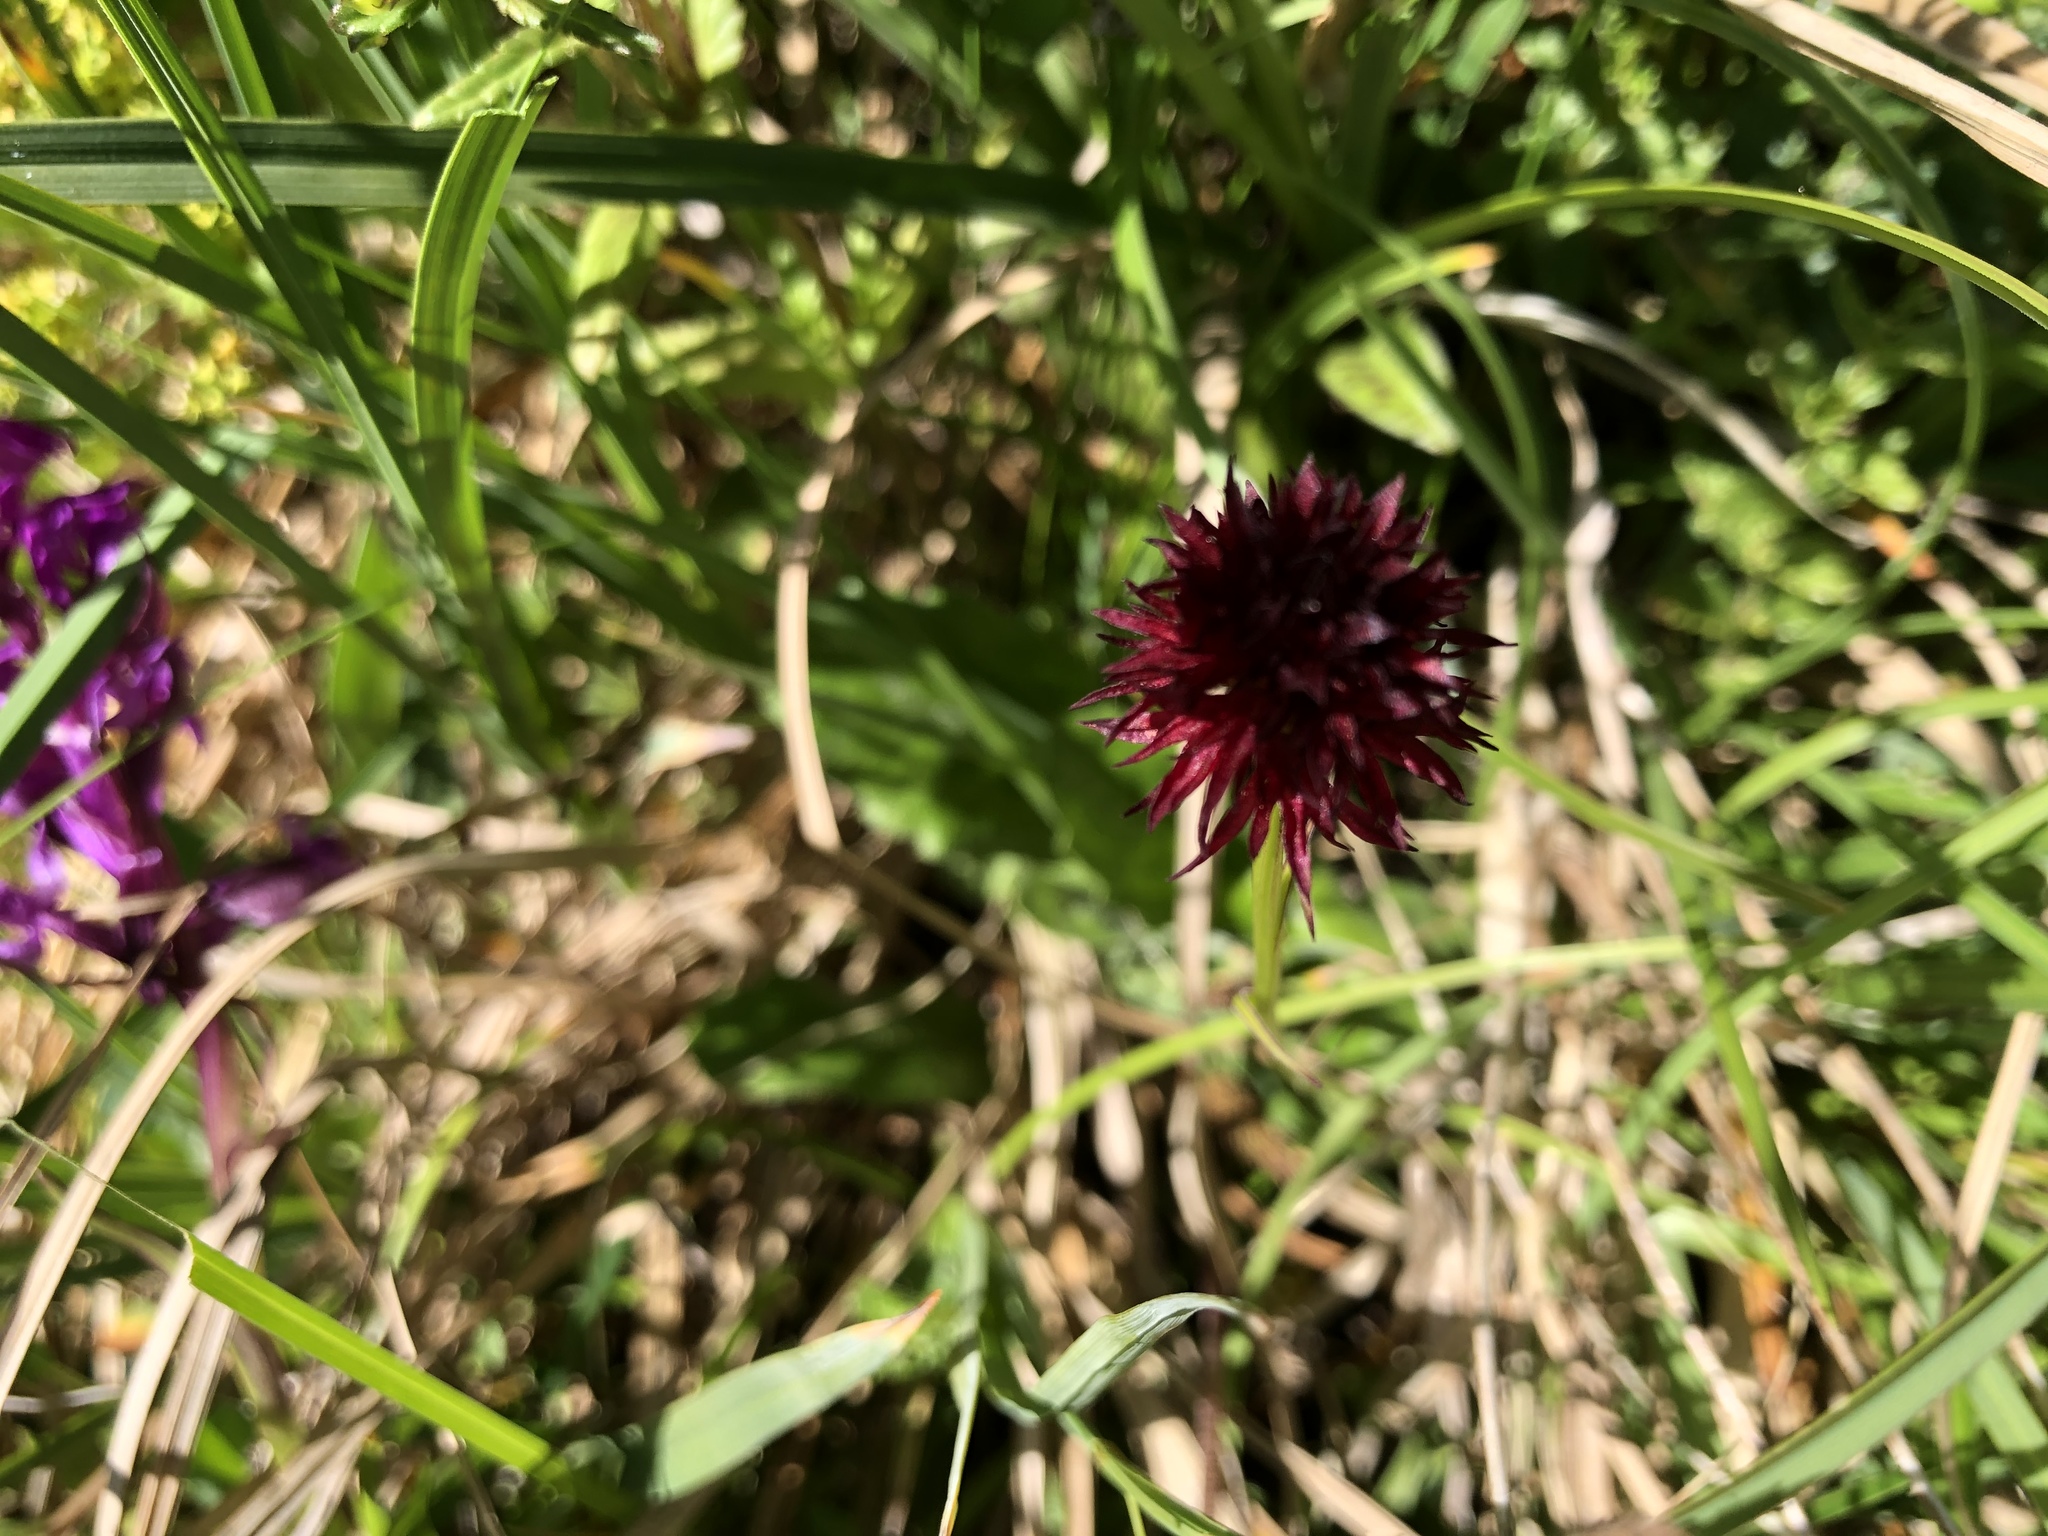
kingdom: Plantae
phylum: Tracheophyta
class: Liliopsida
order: Asparagales
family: Orchidaceae
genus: Gymnadenia
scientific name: Gymnadenia rhellicani
